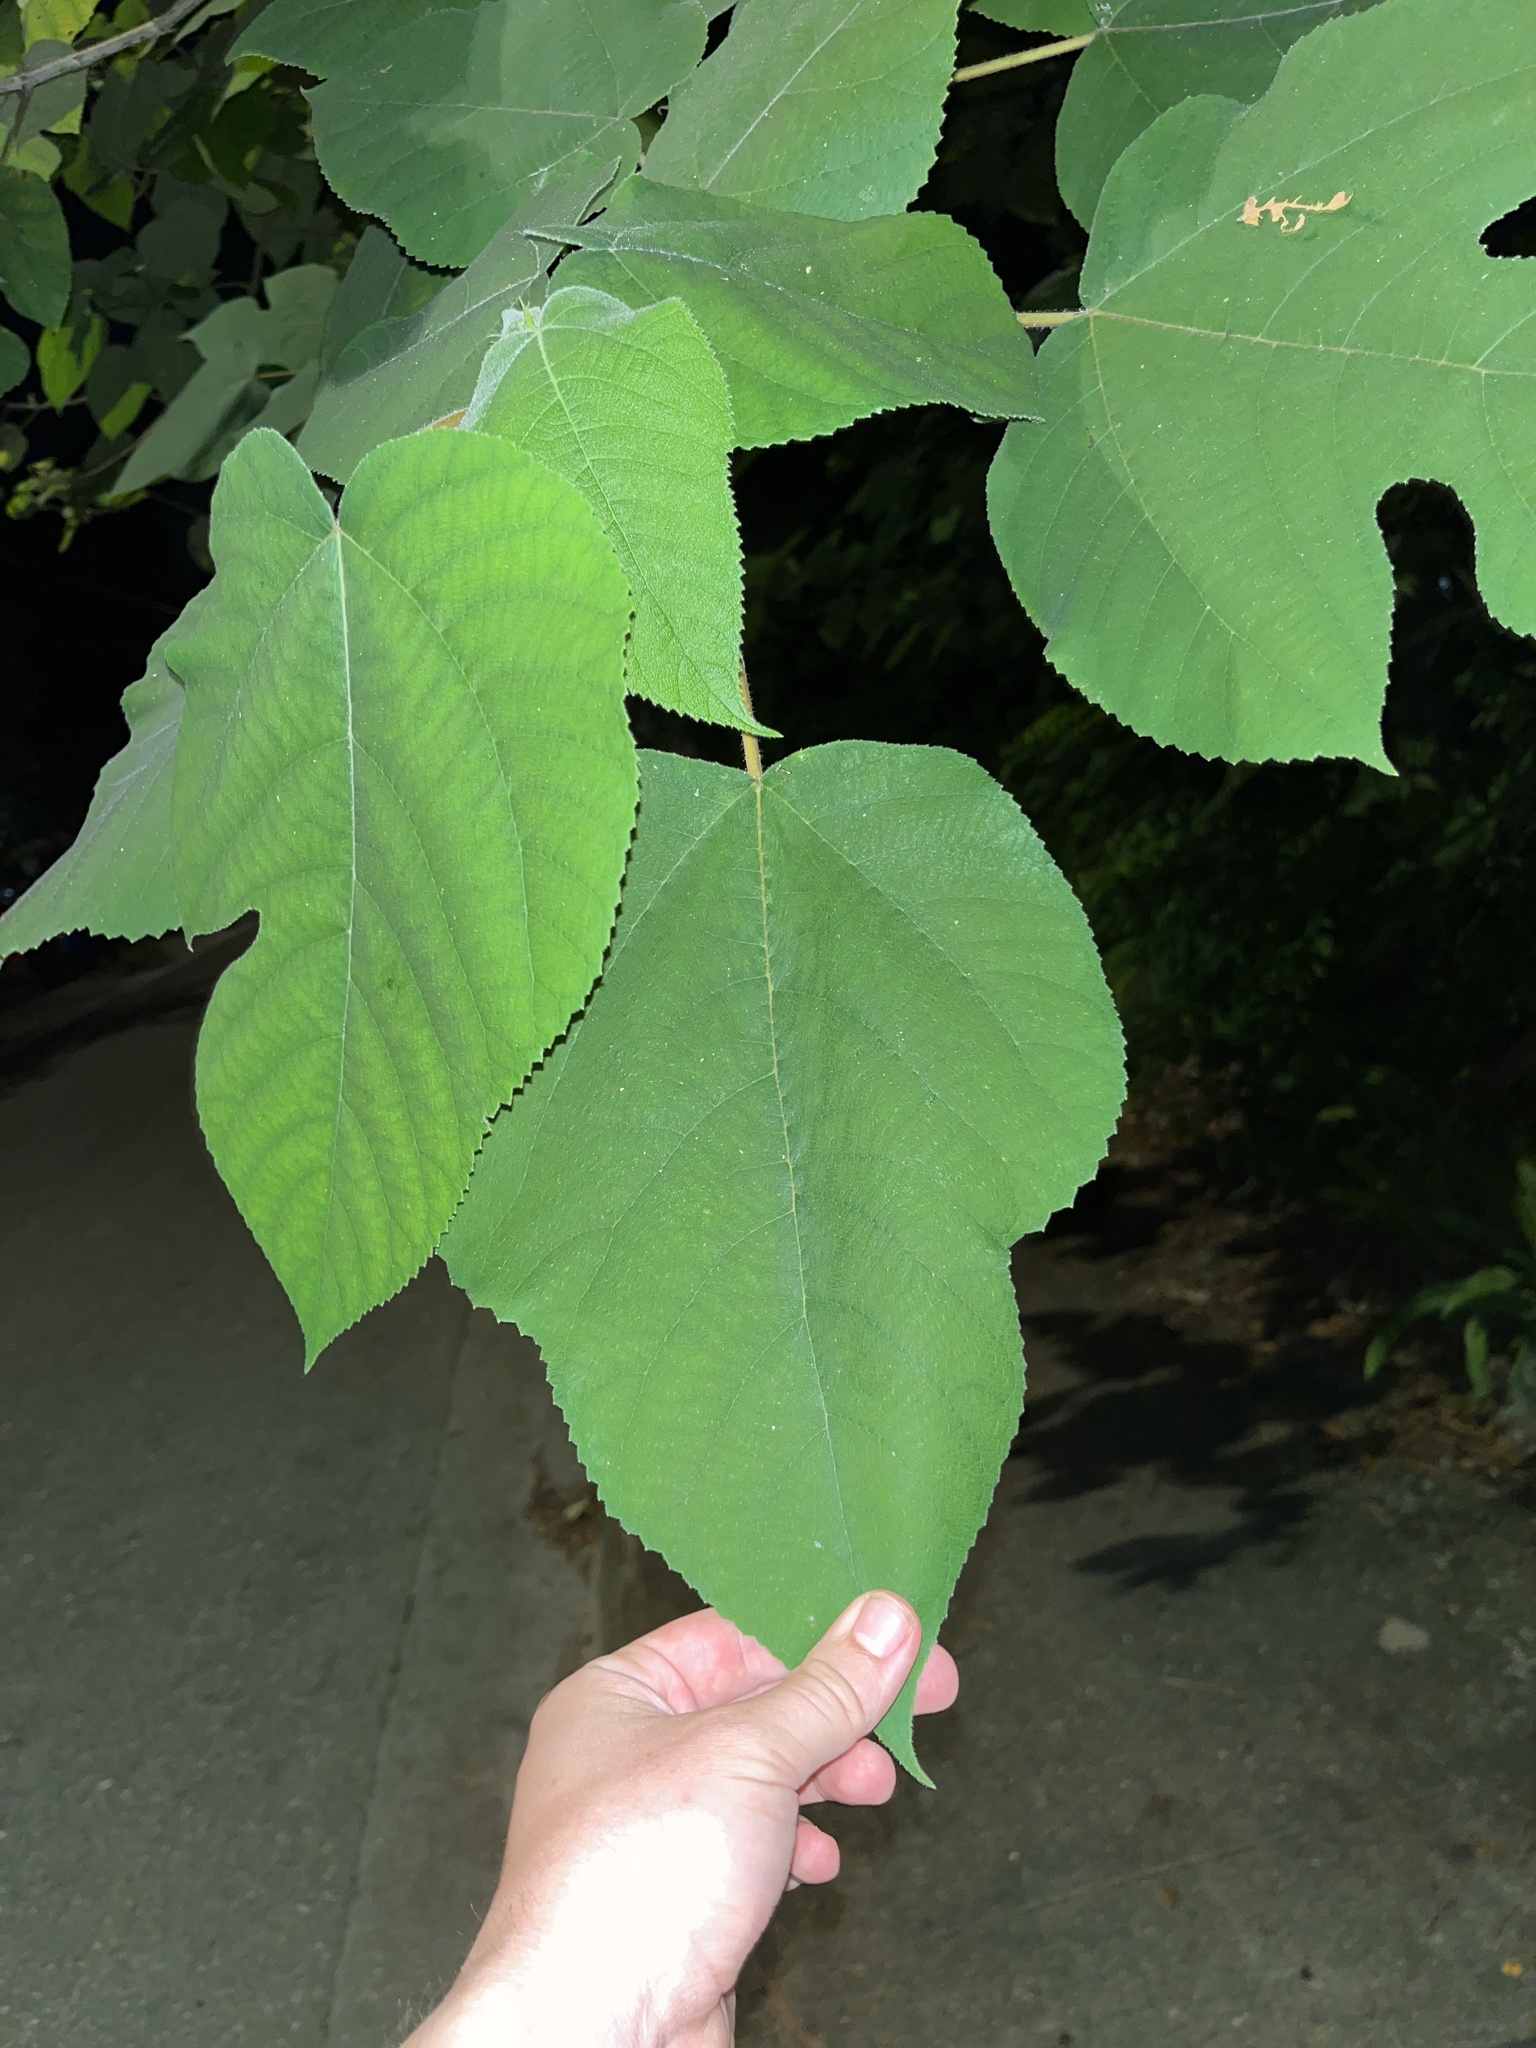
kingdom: Plantae
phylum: Tracheophyta
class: Magnoliopsida
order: Rosales
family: Moraceae
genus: Broussonetia
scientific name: Broussonetia papyrifera
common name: Paper mulberry
